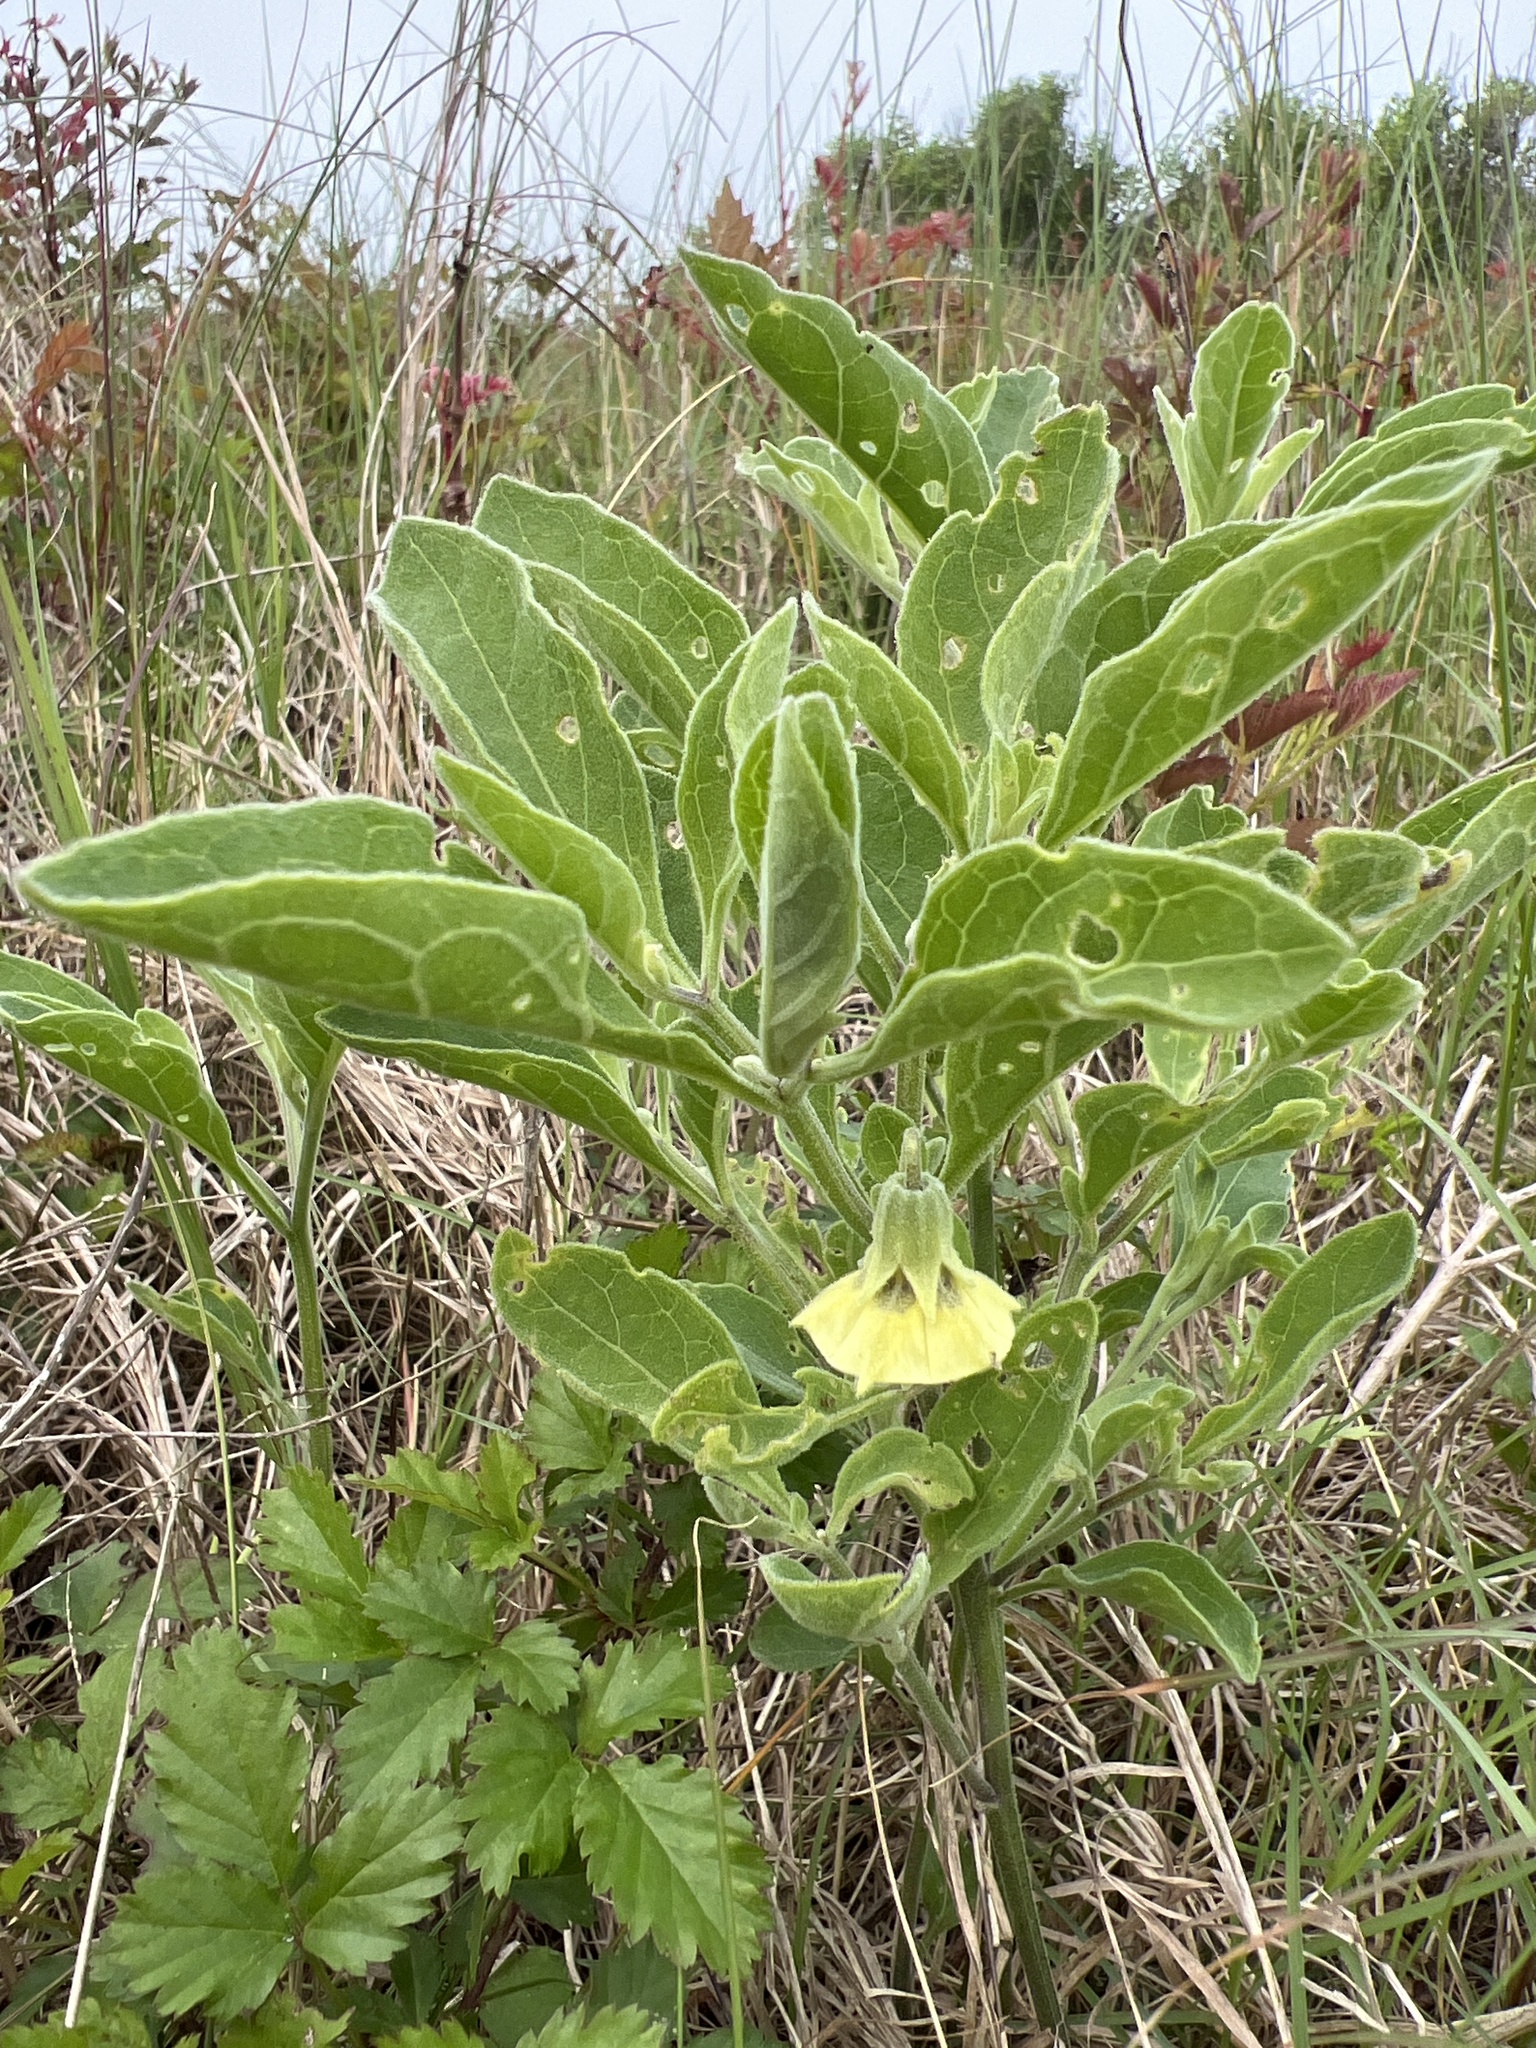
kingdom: Plantae
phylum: Tracheophyta
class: Magnoliopsida
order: Solanales
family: Solanaceae
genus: Physalis
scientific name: Physalis cinerascens
